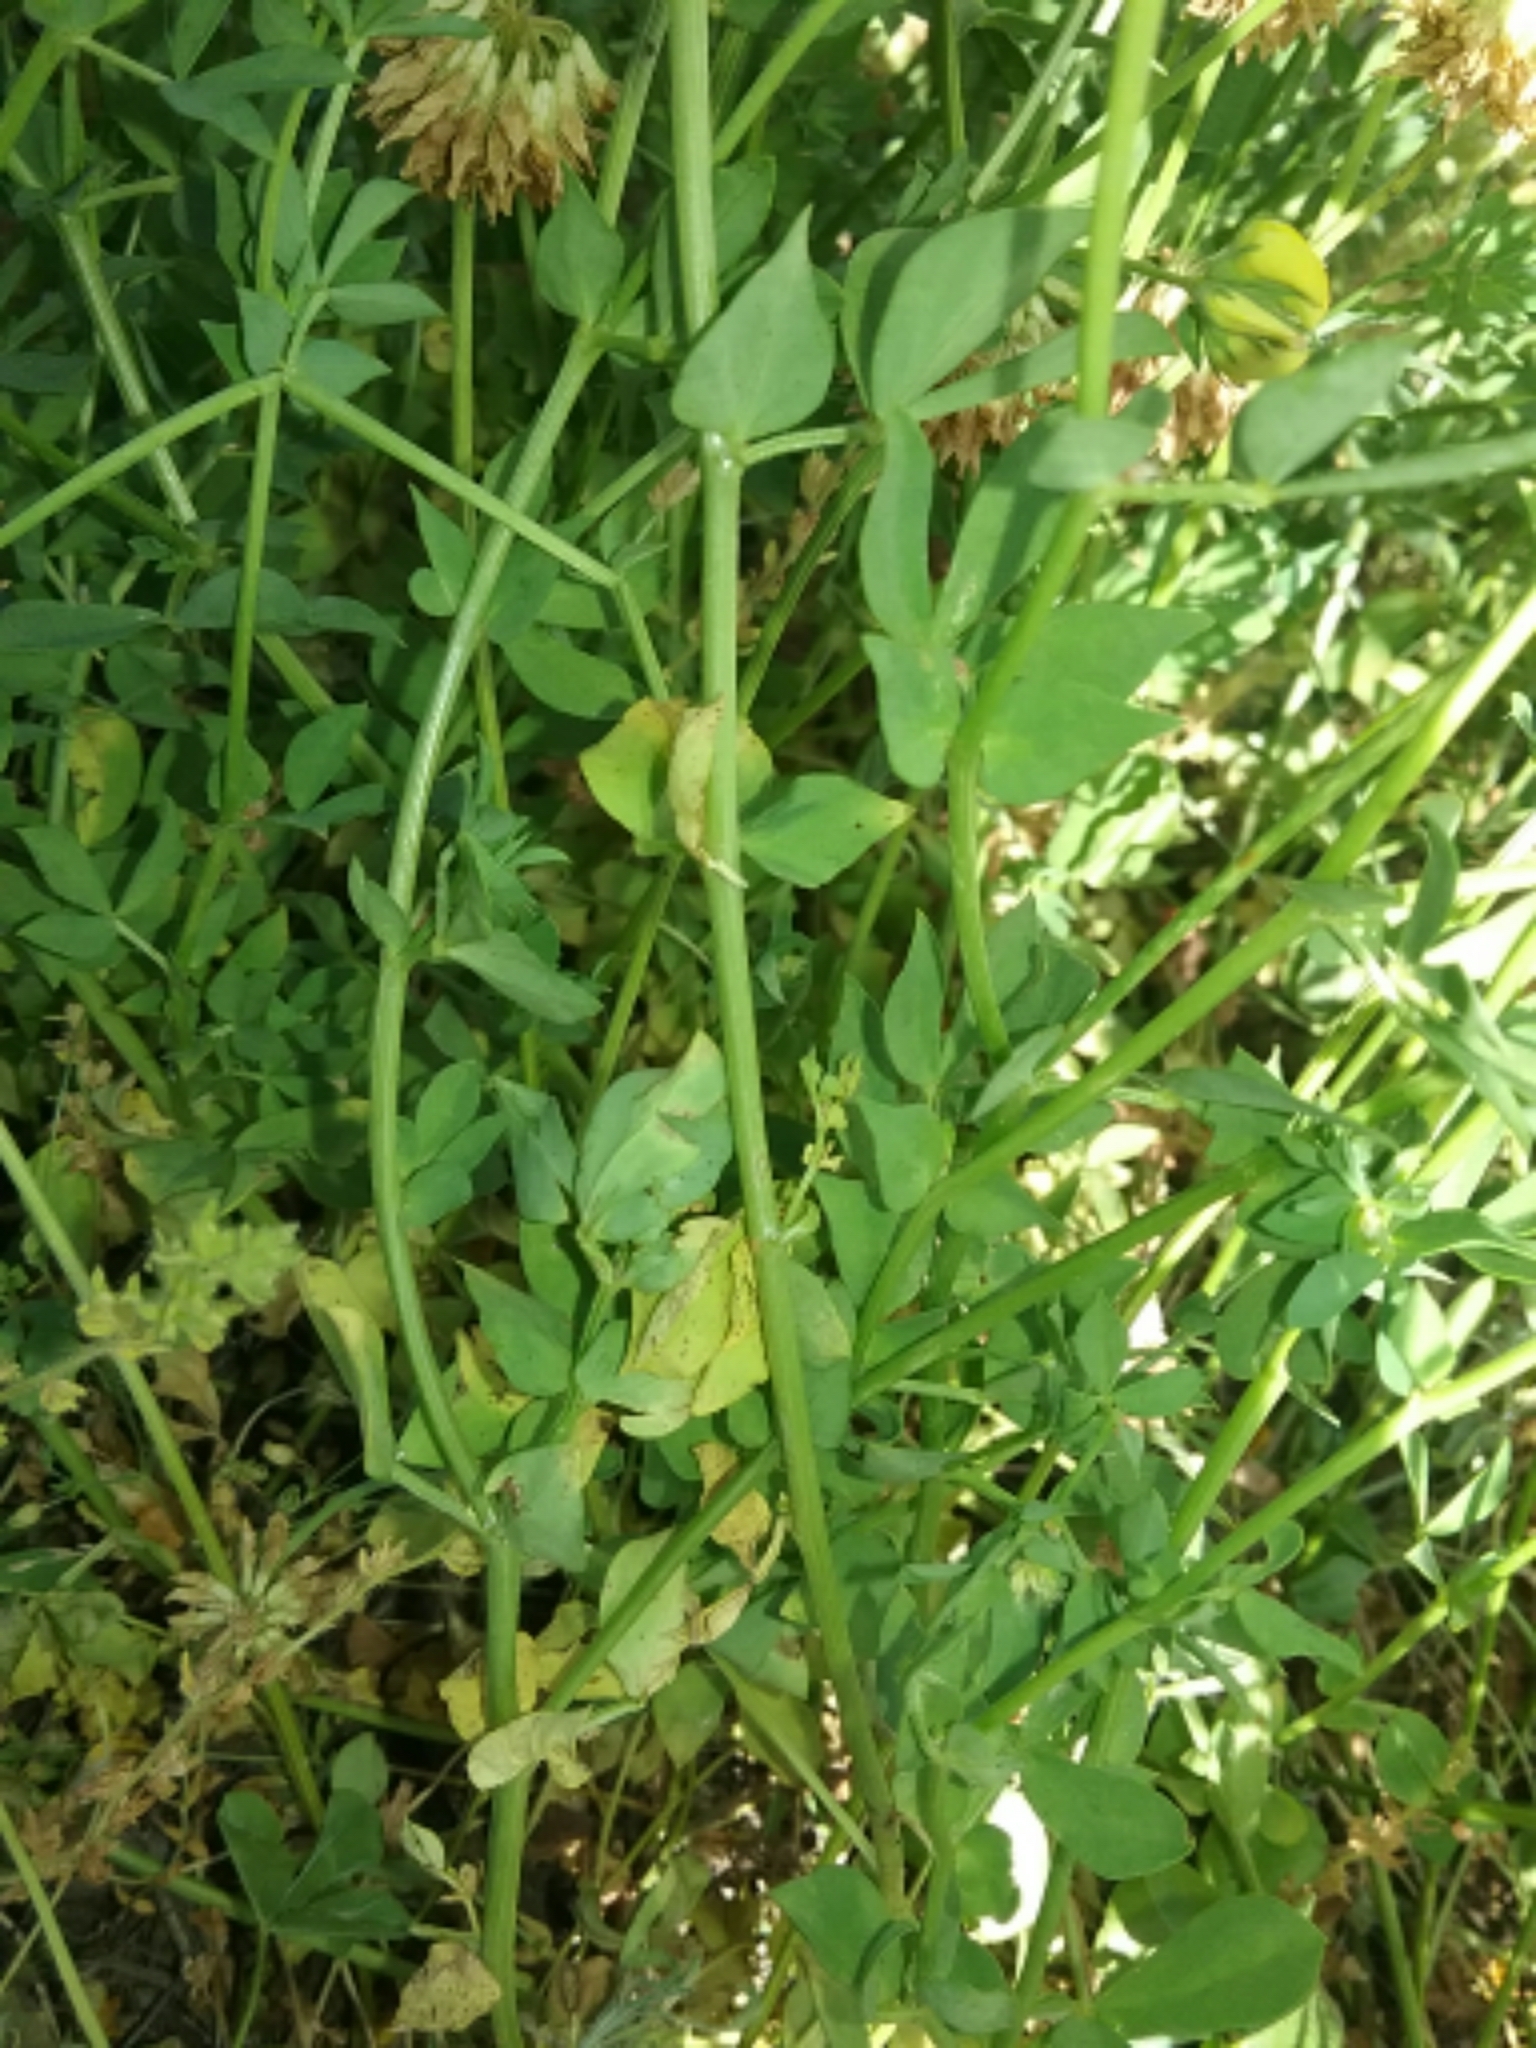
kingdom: Plantae
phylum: Tracheophyta
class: Magnoliopsida
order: Fabales
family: Fabaceae
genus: Lotus
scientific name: Lotus corniculatus
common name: Common bird's-foot-trefoil
